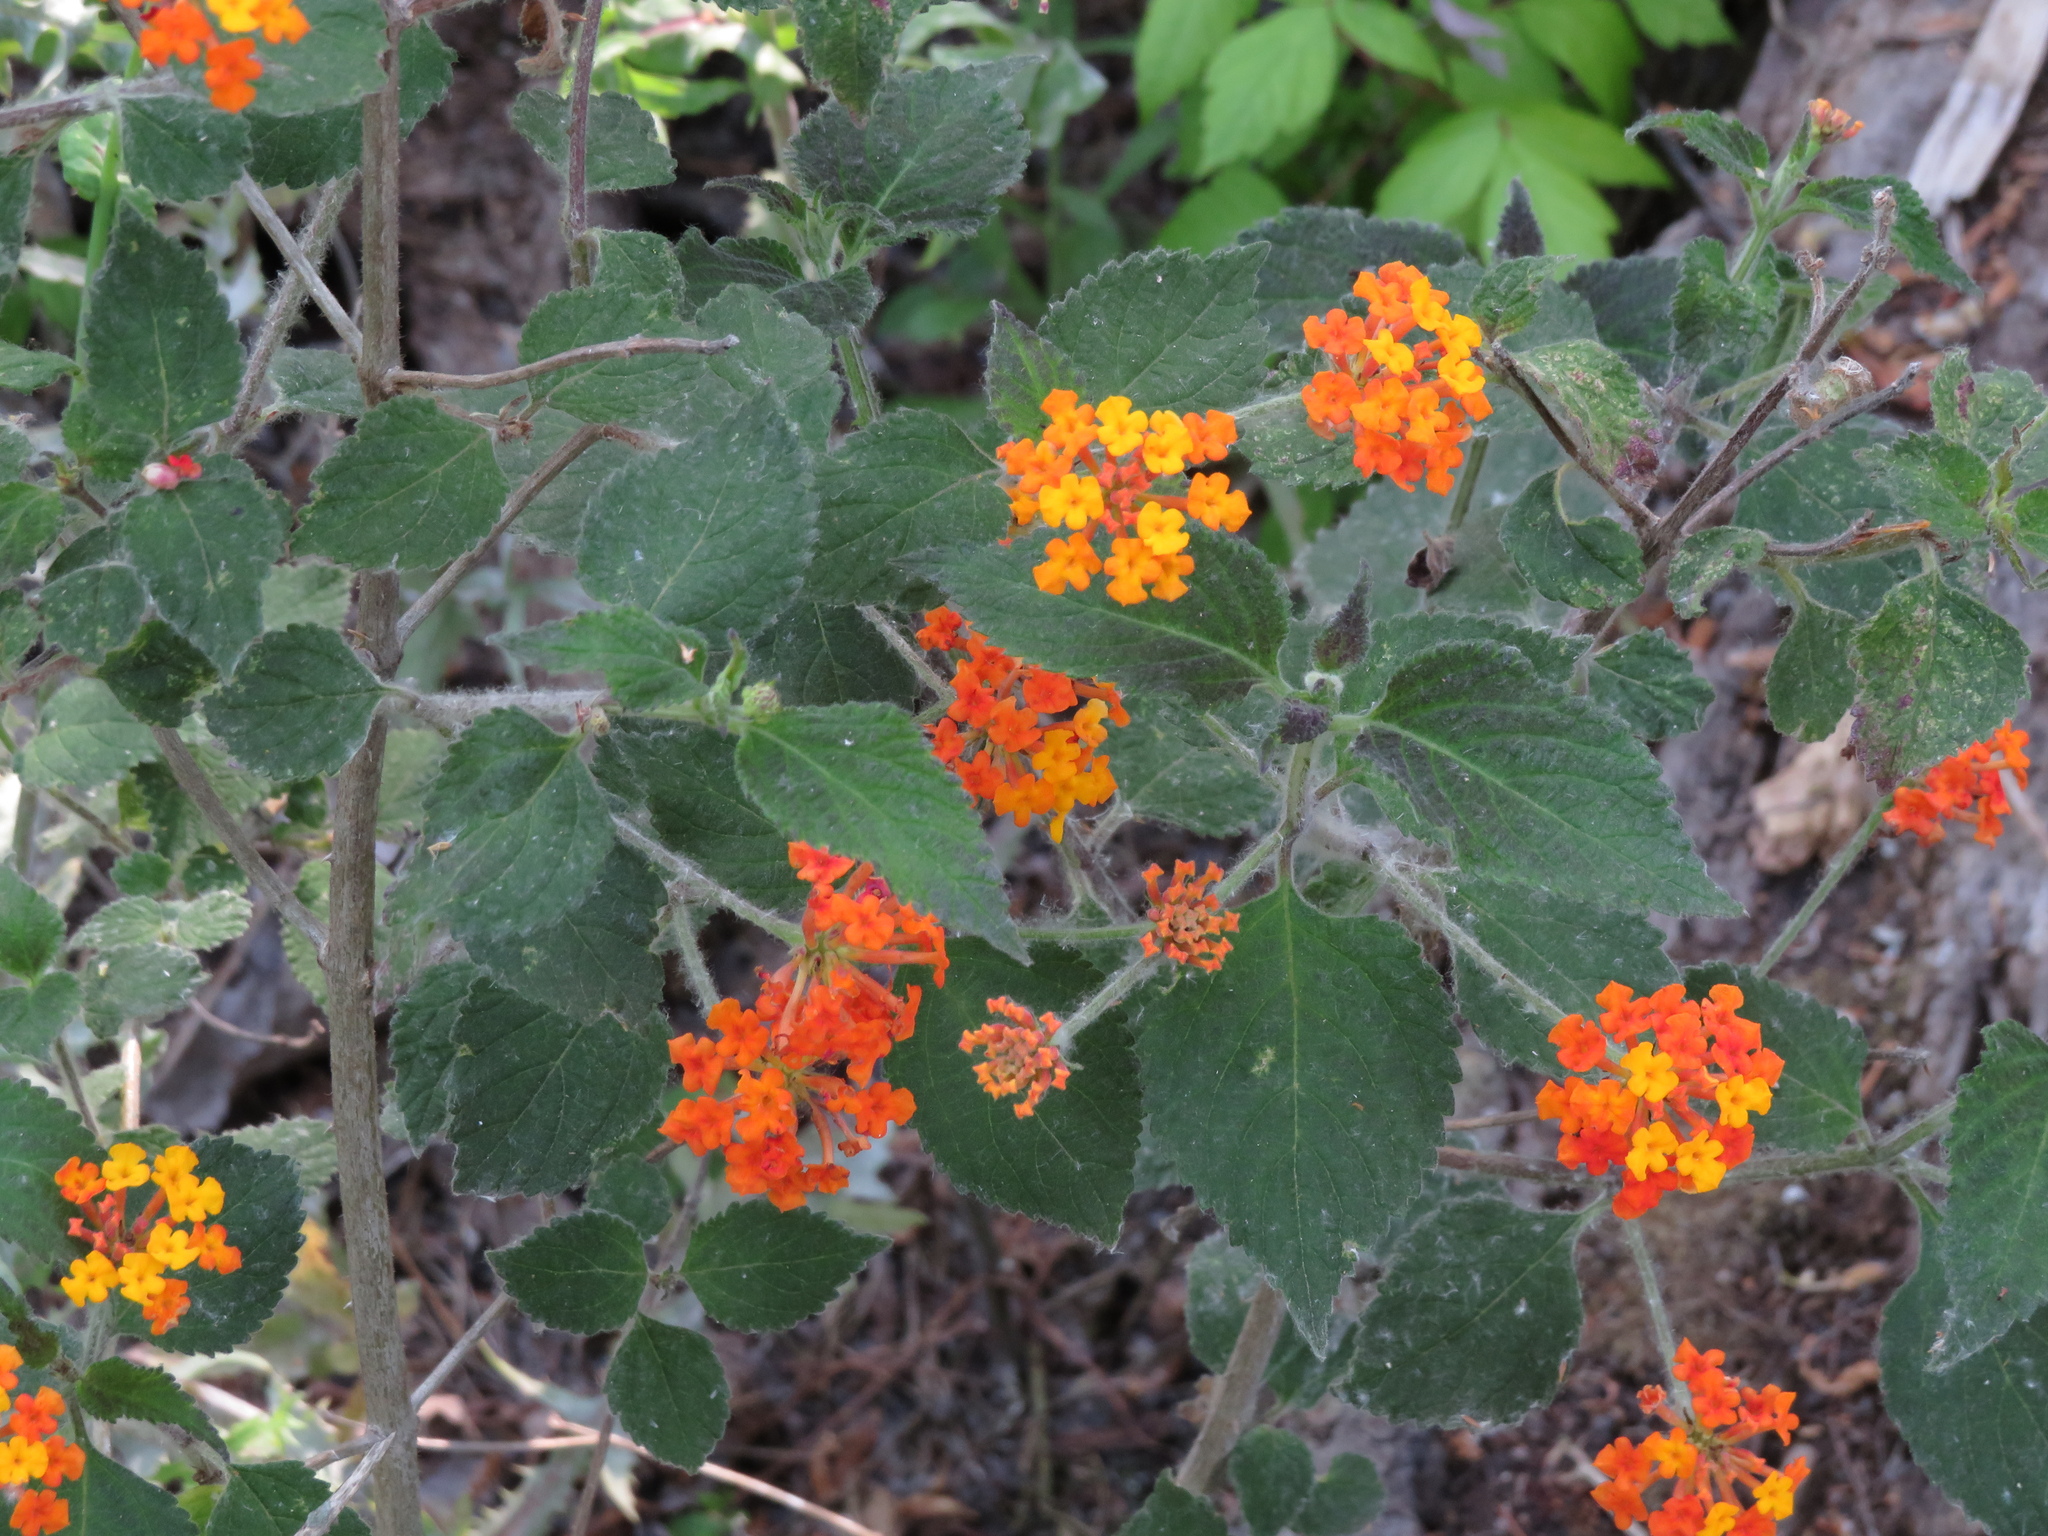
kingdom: Plantae
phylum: Tracheophyta
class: Magnoliopsida
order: Lamiales
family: Verbenaceae
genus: Lantana
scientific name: Lantana camara
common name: Lantana
